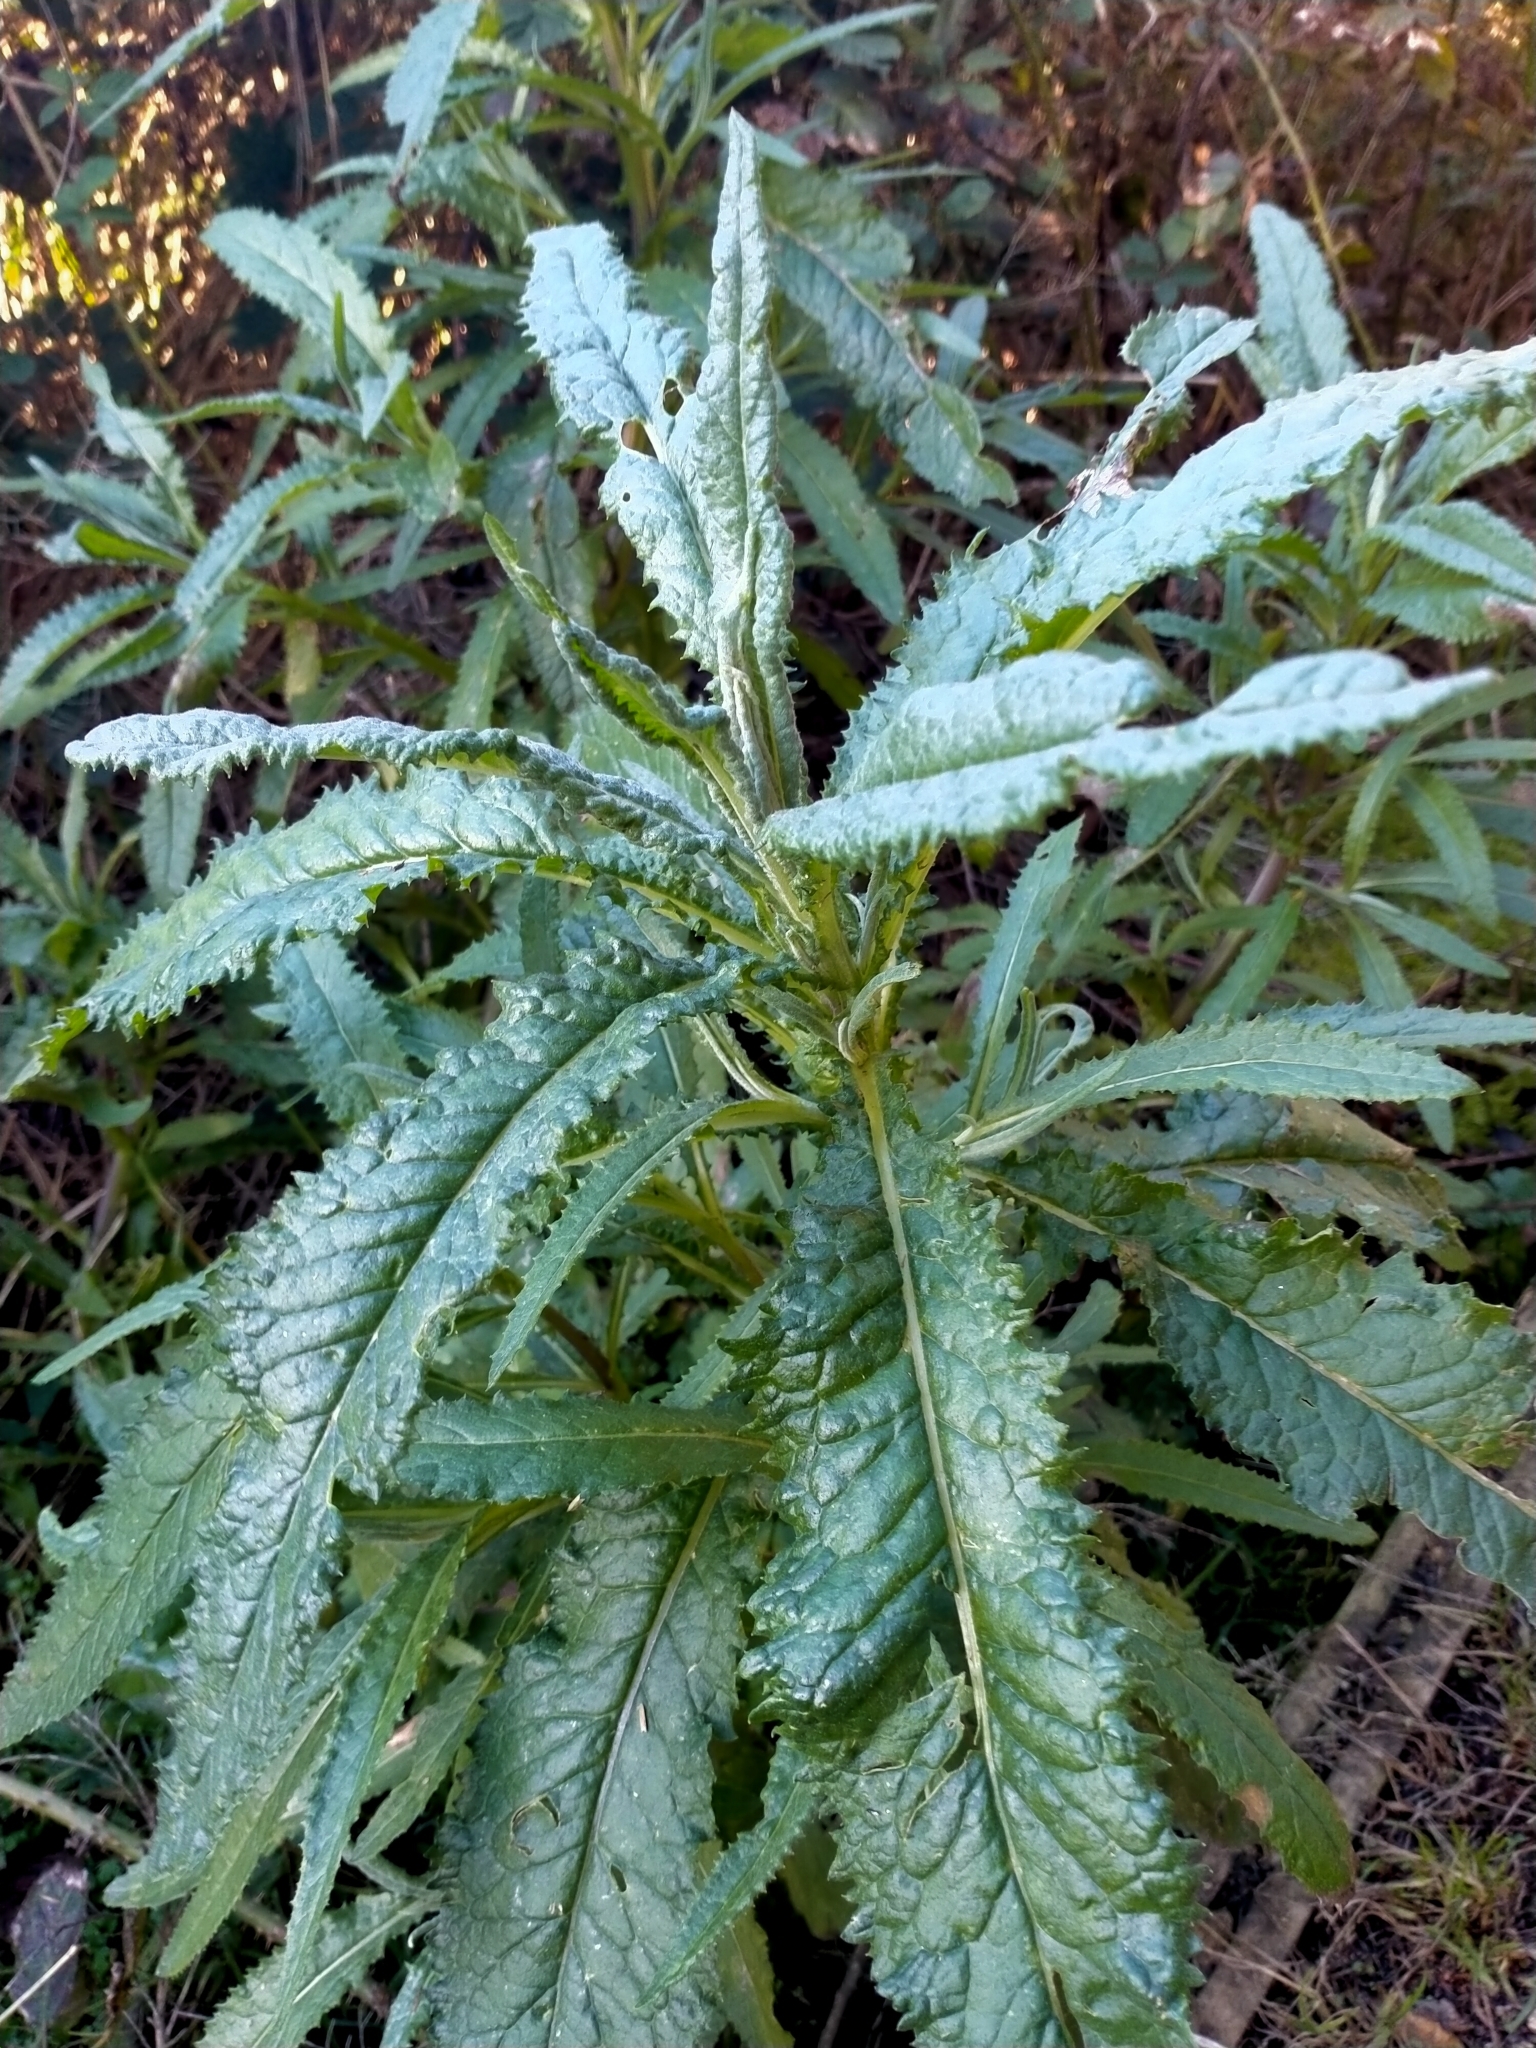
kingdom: Plantae
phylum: Tracheophyta
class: Magnoliopsida
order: Asterales
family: Asteraceae
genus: Senecio
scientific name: Senecio minimus
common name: Toothed fireweed
